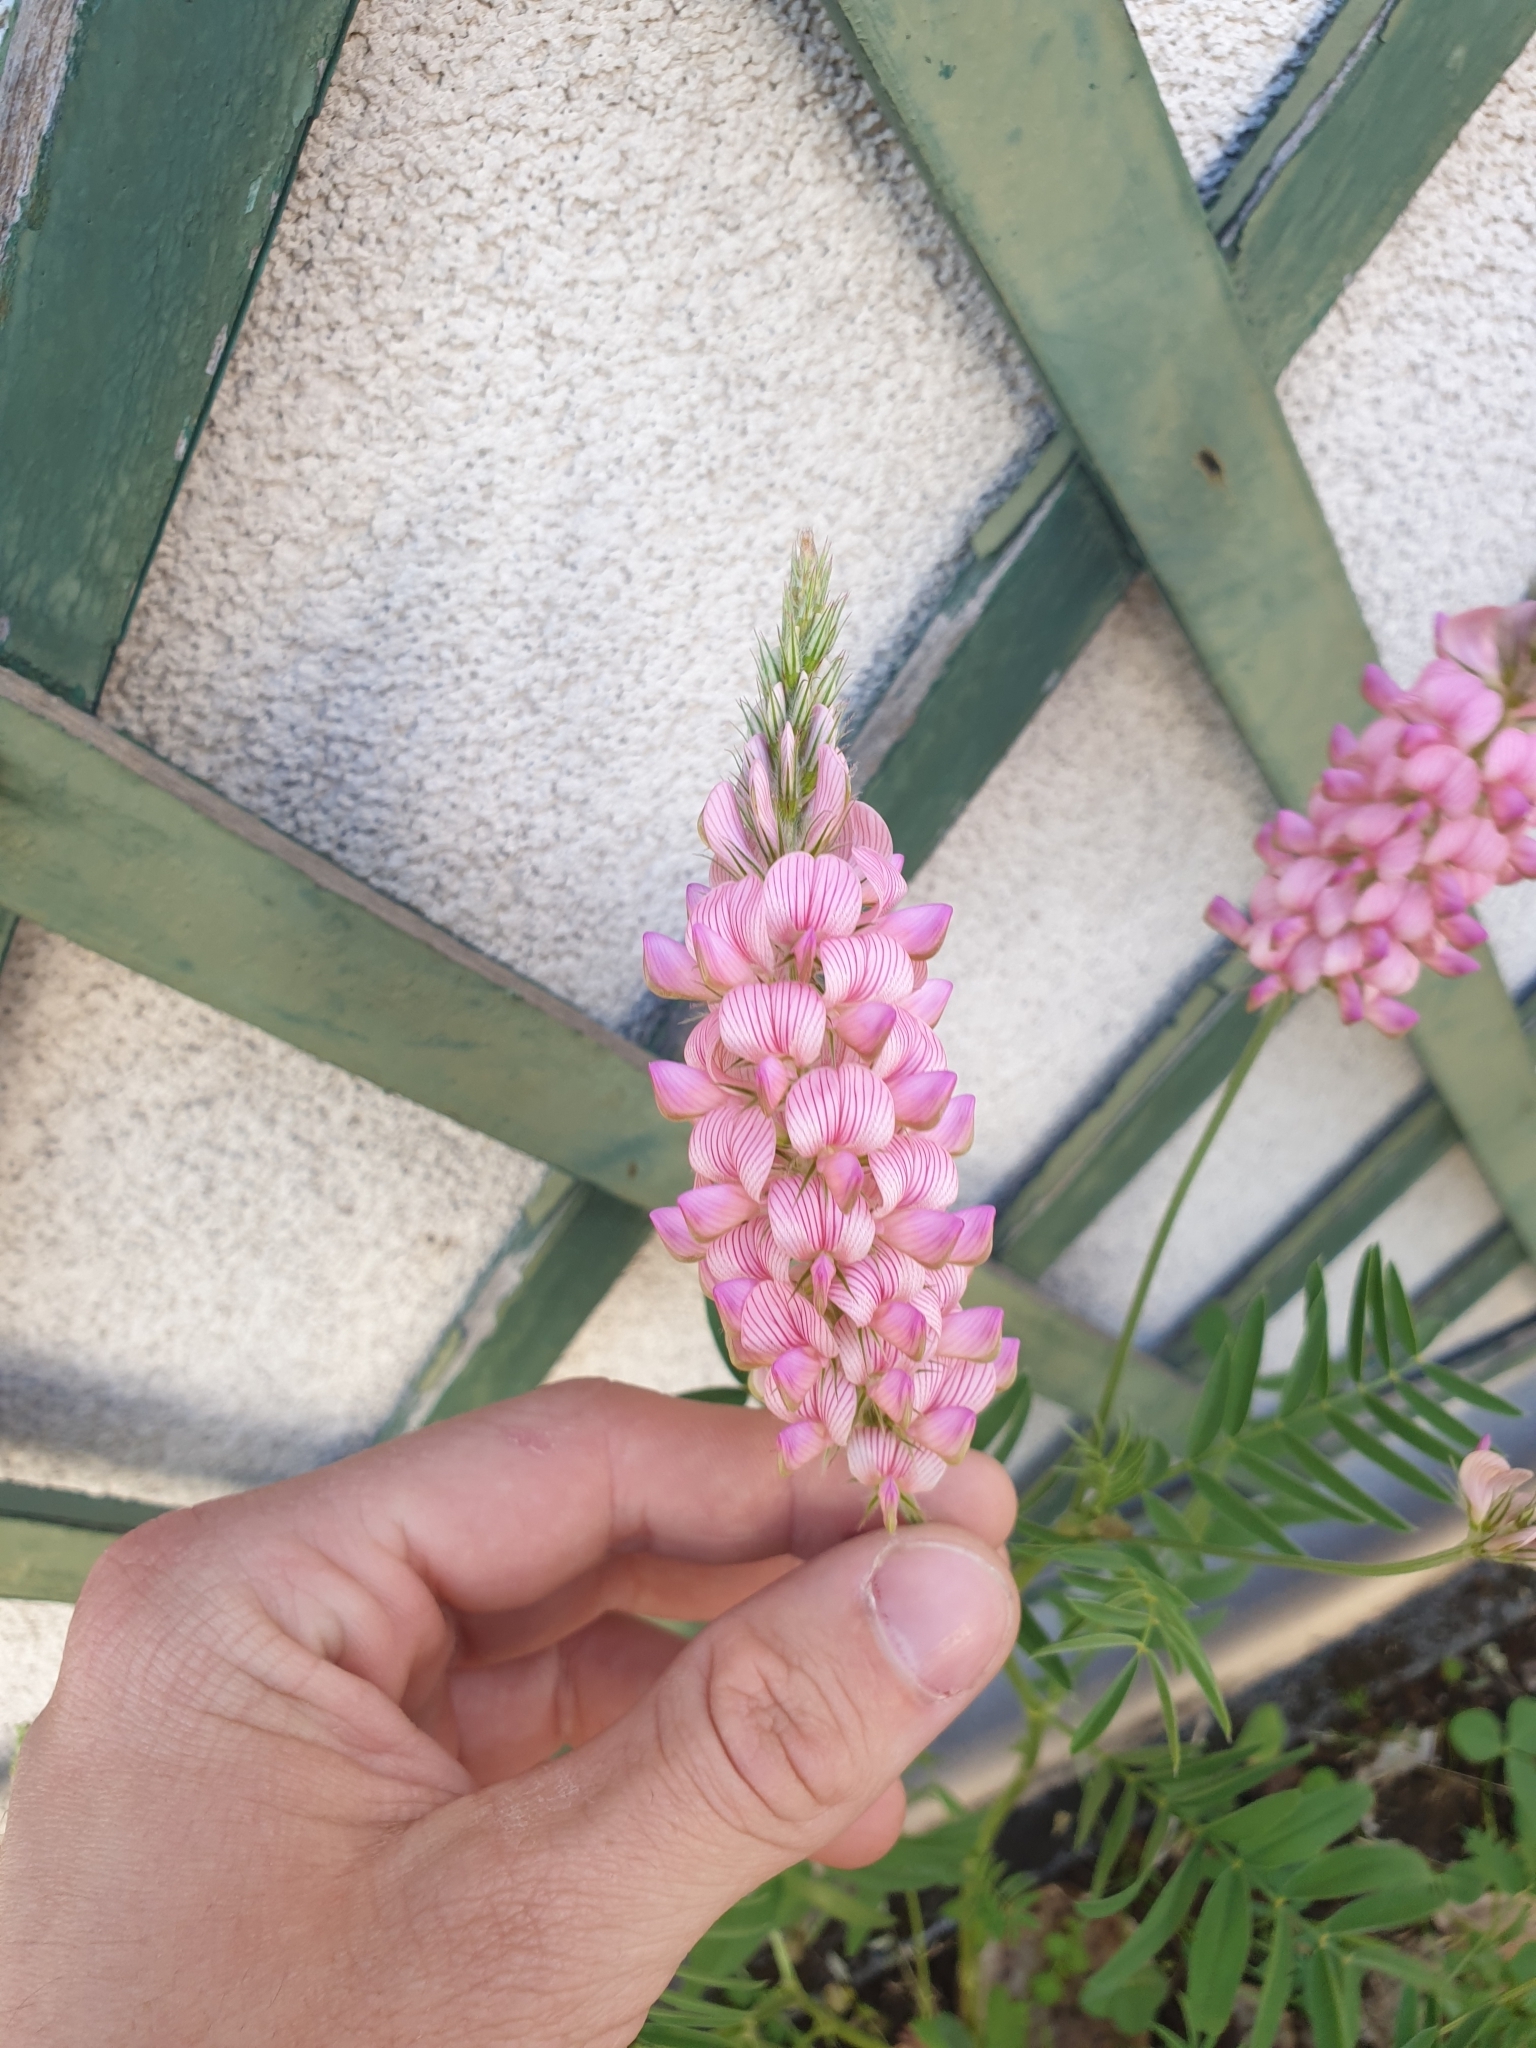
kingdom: Plantae
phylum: Tracheophyta
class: Magnoliopsida
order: Fabales
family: Fabaceae
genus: Onobrychis
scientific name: Onobrychis viciifolia
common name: Sainfoin
